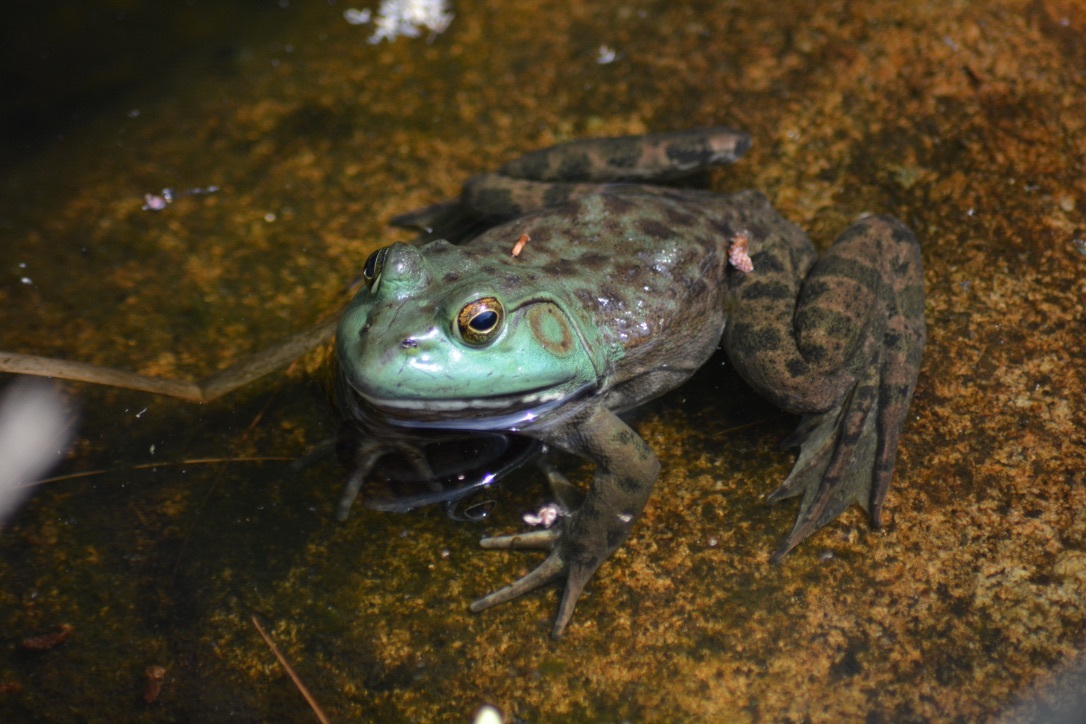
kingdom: Animalia
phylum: Chordata
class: Amphibia
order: Anura
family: Ranidae
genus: Lithobates
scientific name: Lithobates catesbeianus
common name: American bullfrog
